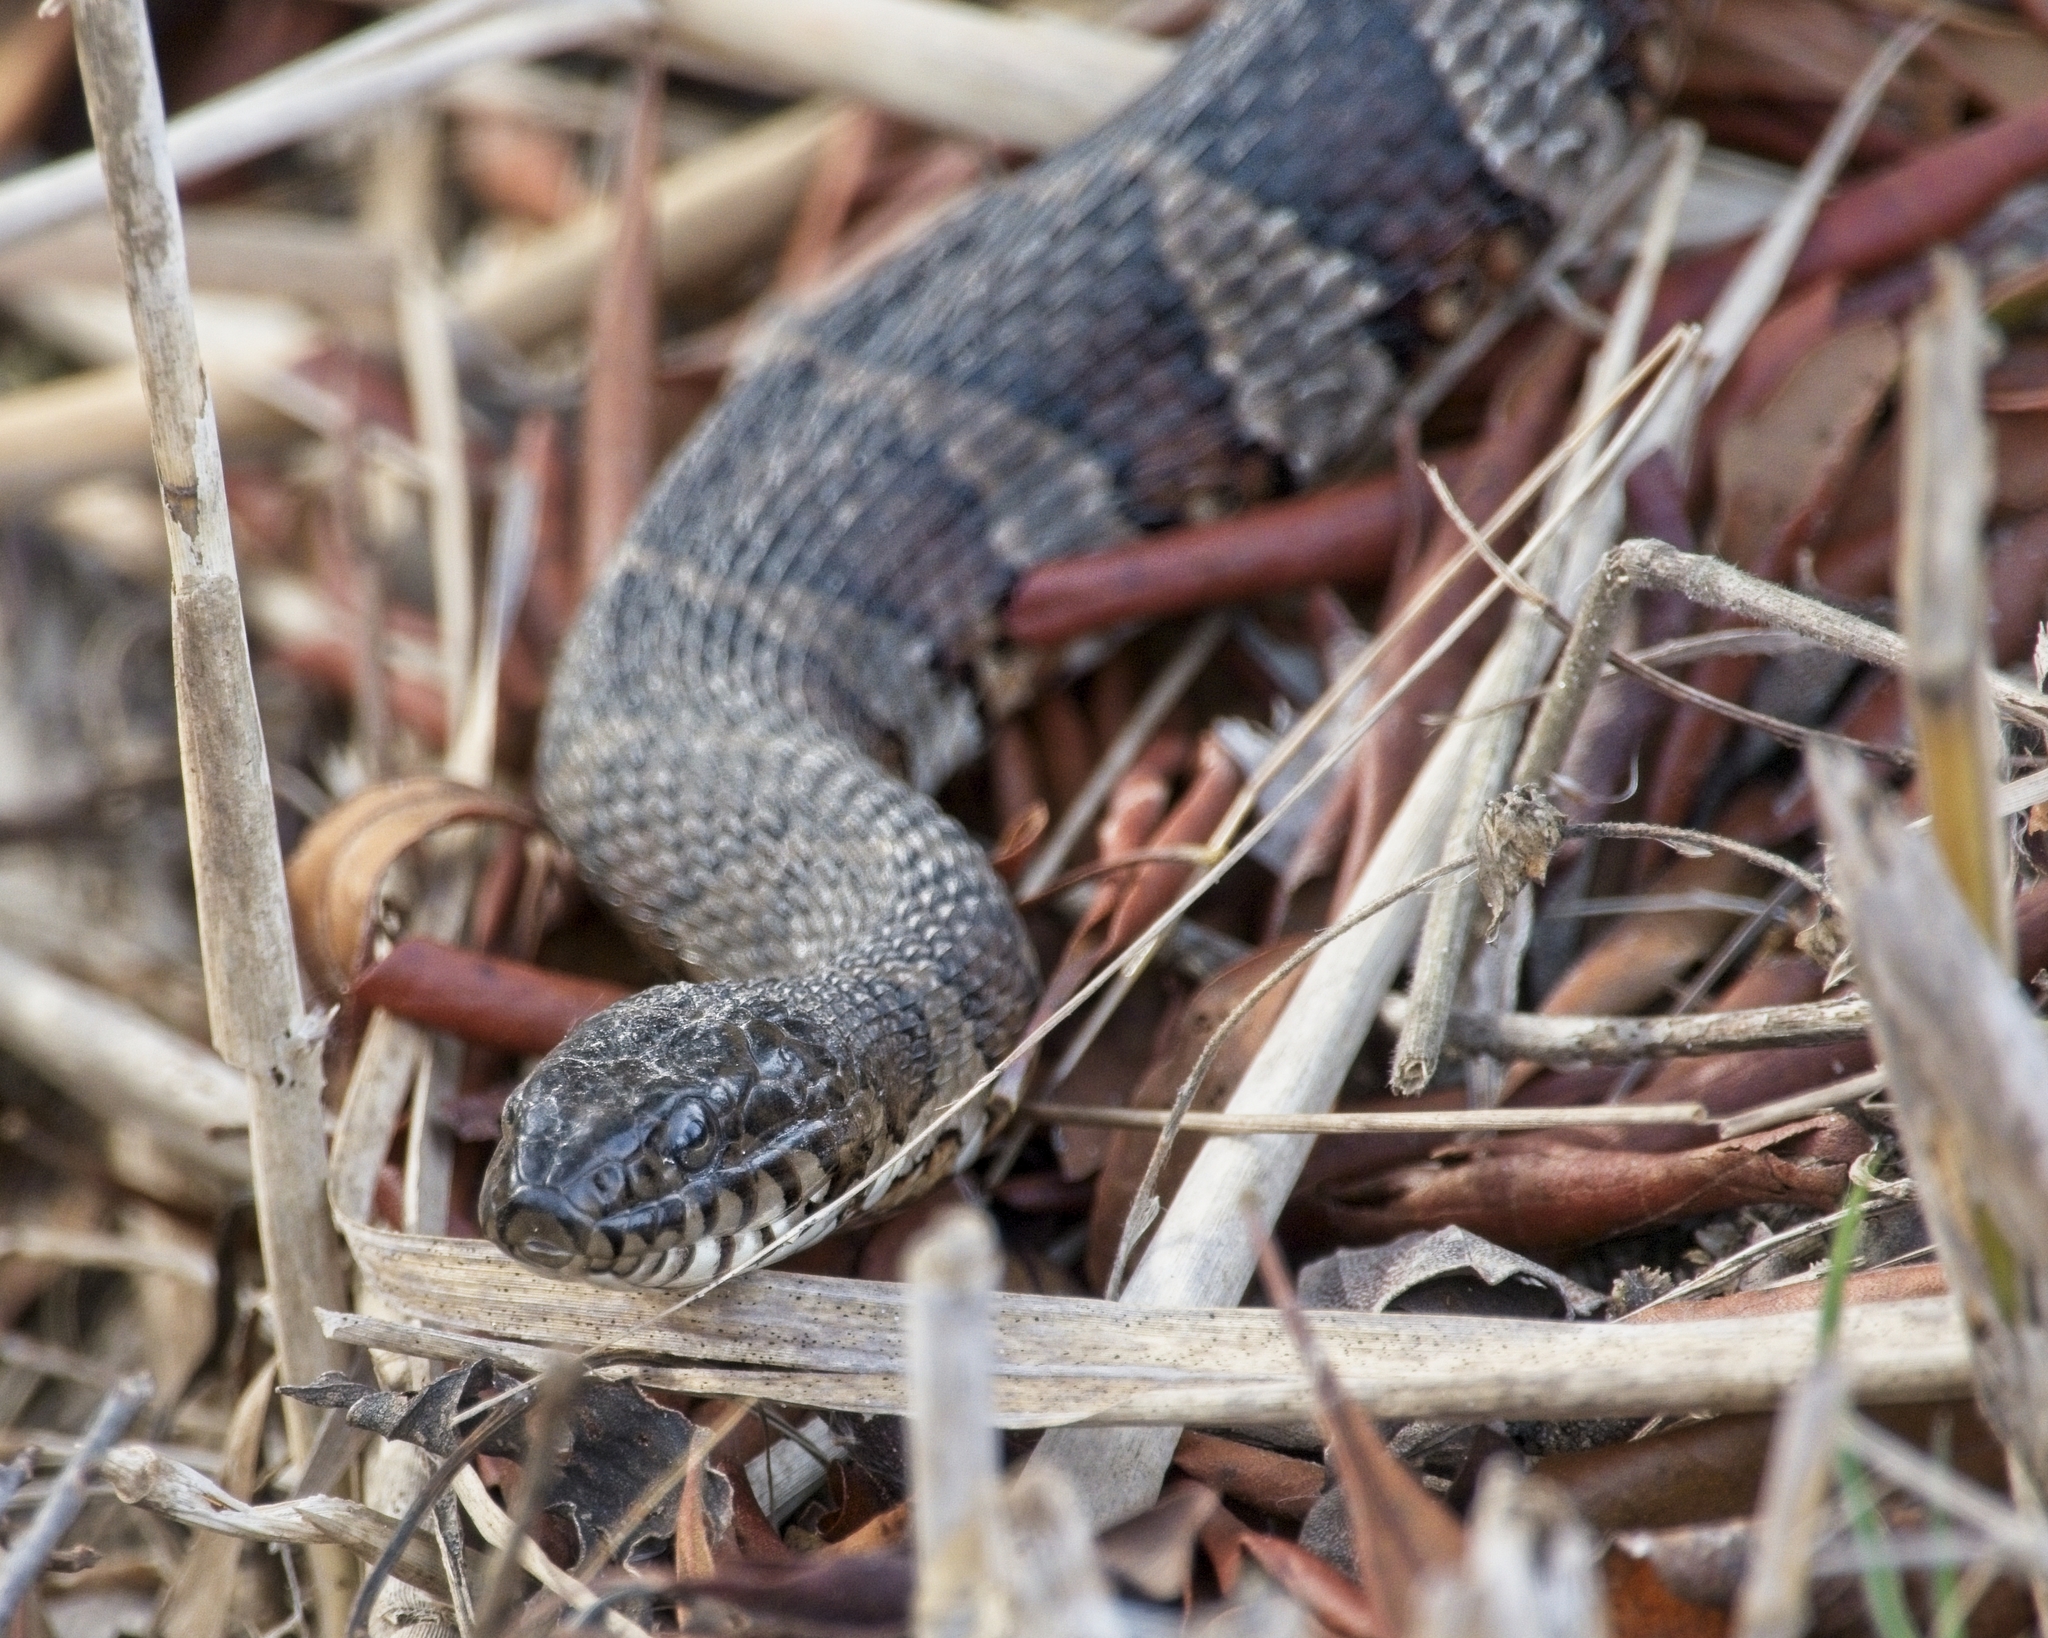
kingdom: Animalia
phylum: Chordata
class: Squamata
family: Colubridae
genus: Nerodia
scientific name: Nerodia sipedon
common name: Northern water snake
